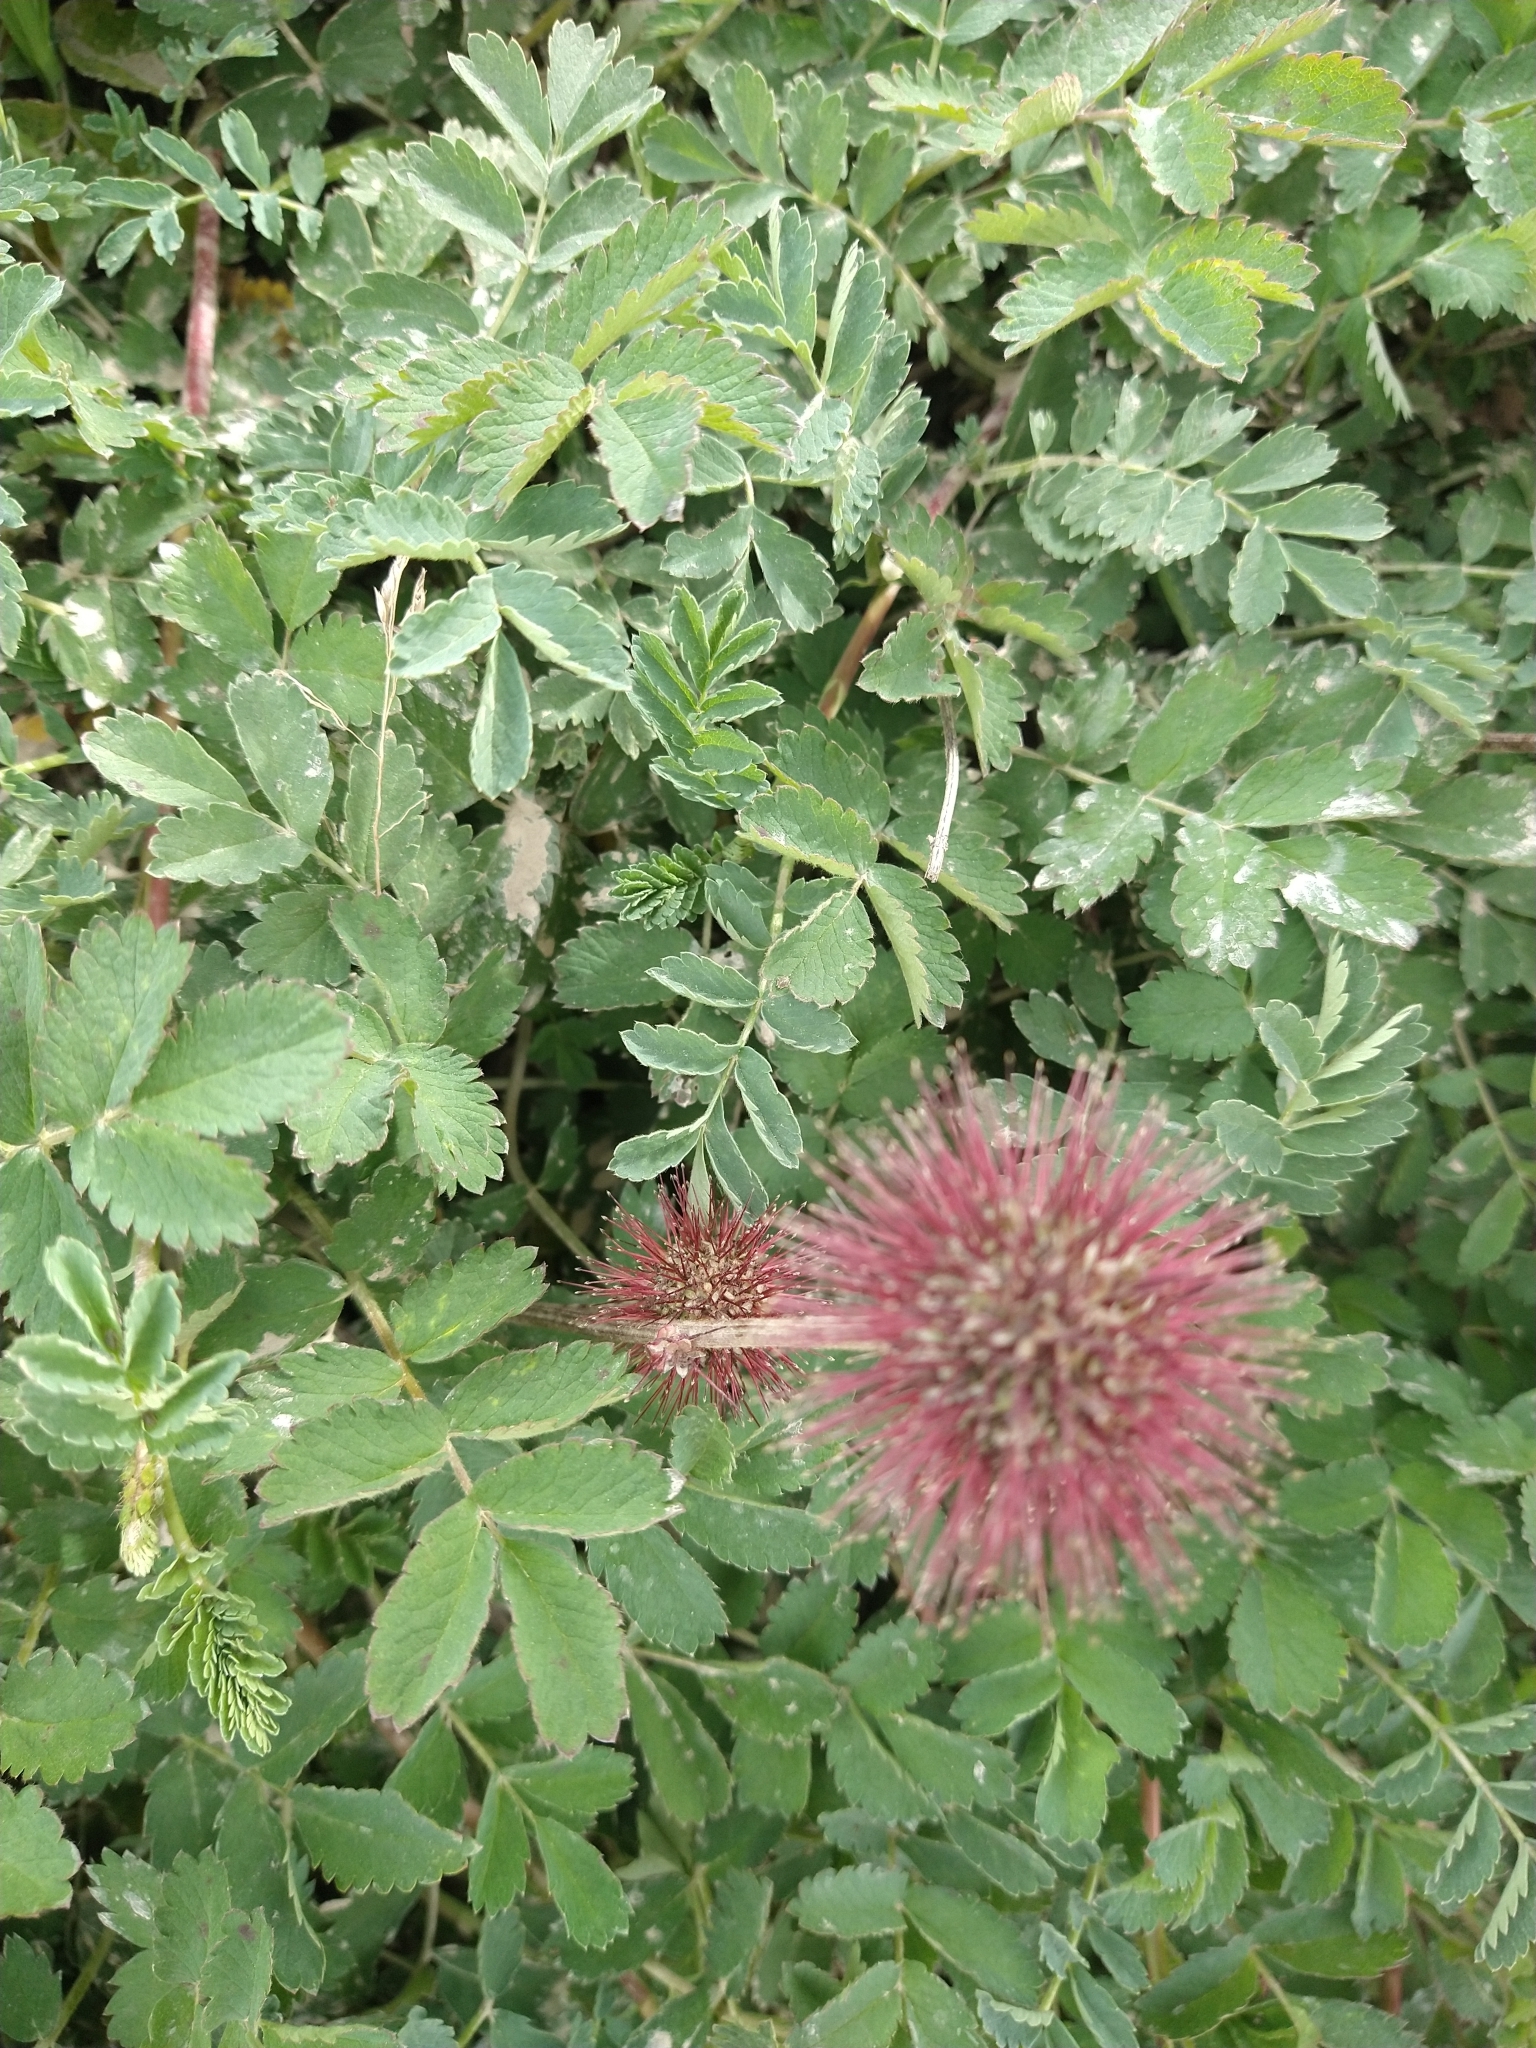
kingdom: Plantae
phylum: Tracheophyta
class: Magnoliopsida
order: Rosales
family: Rosaceae
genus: Acaena
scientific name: Acaena magellanica
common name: New zealand burr
